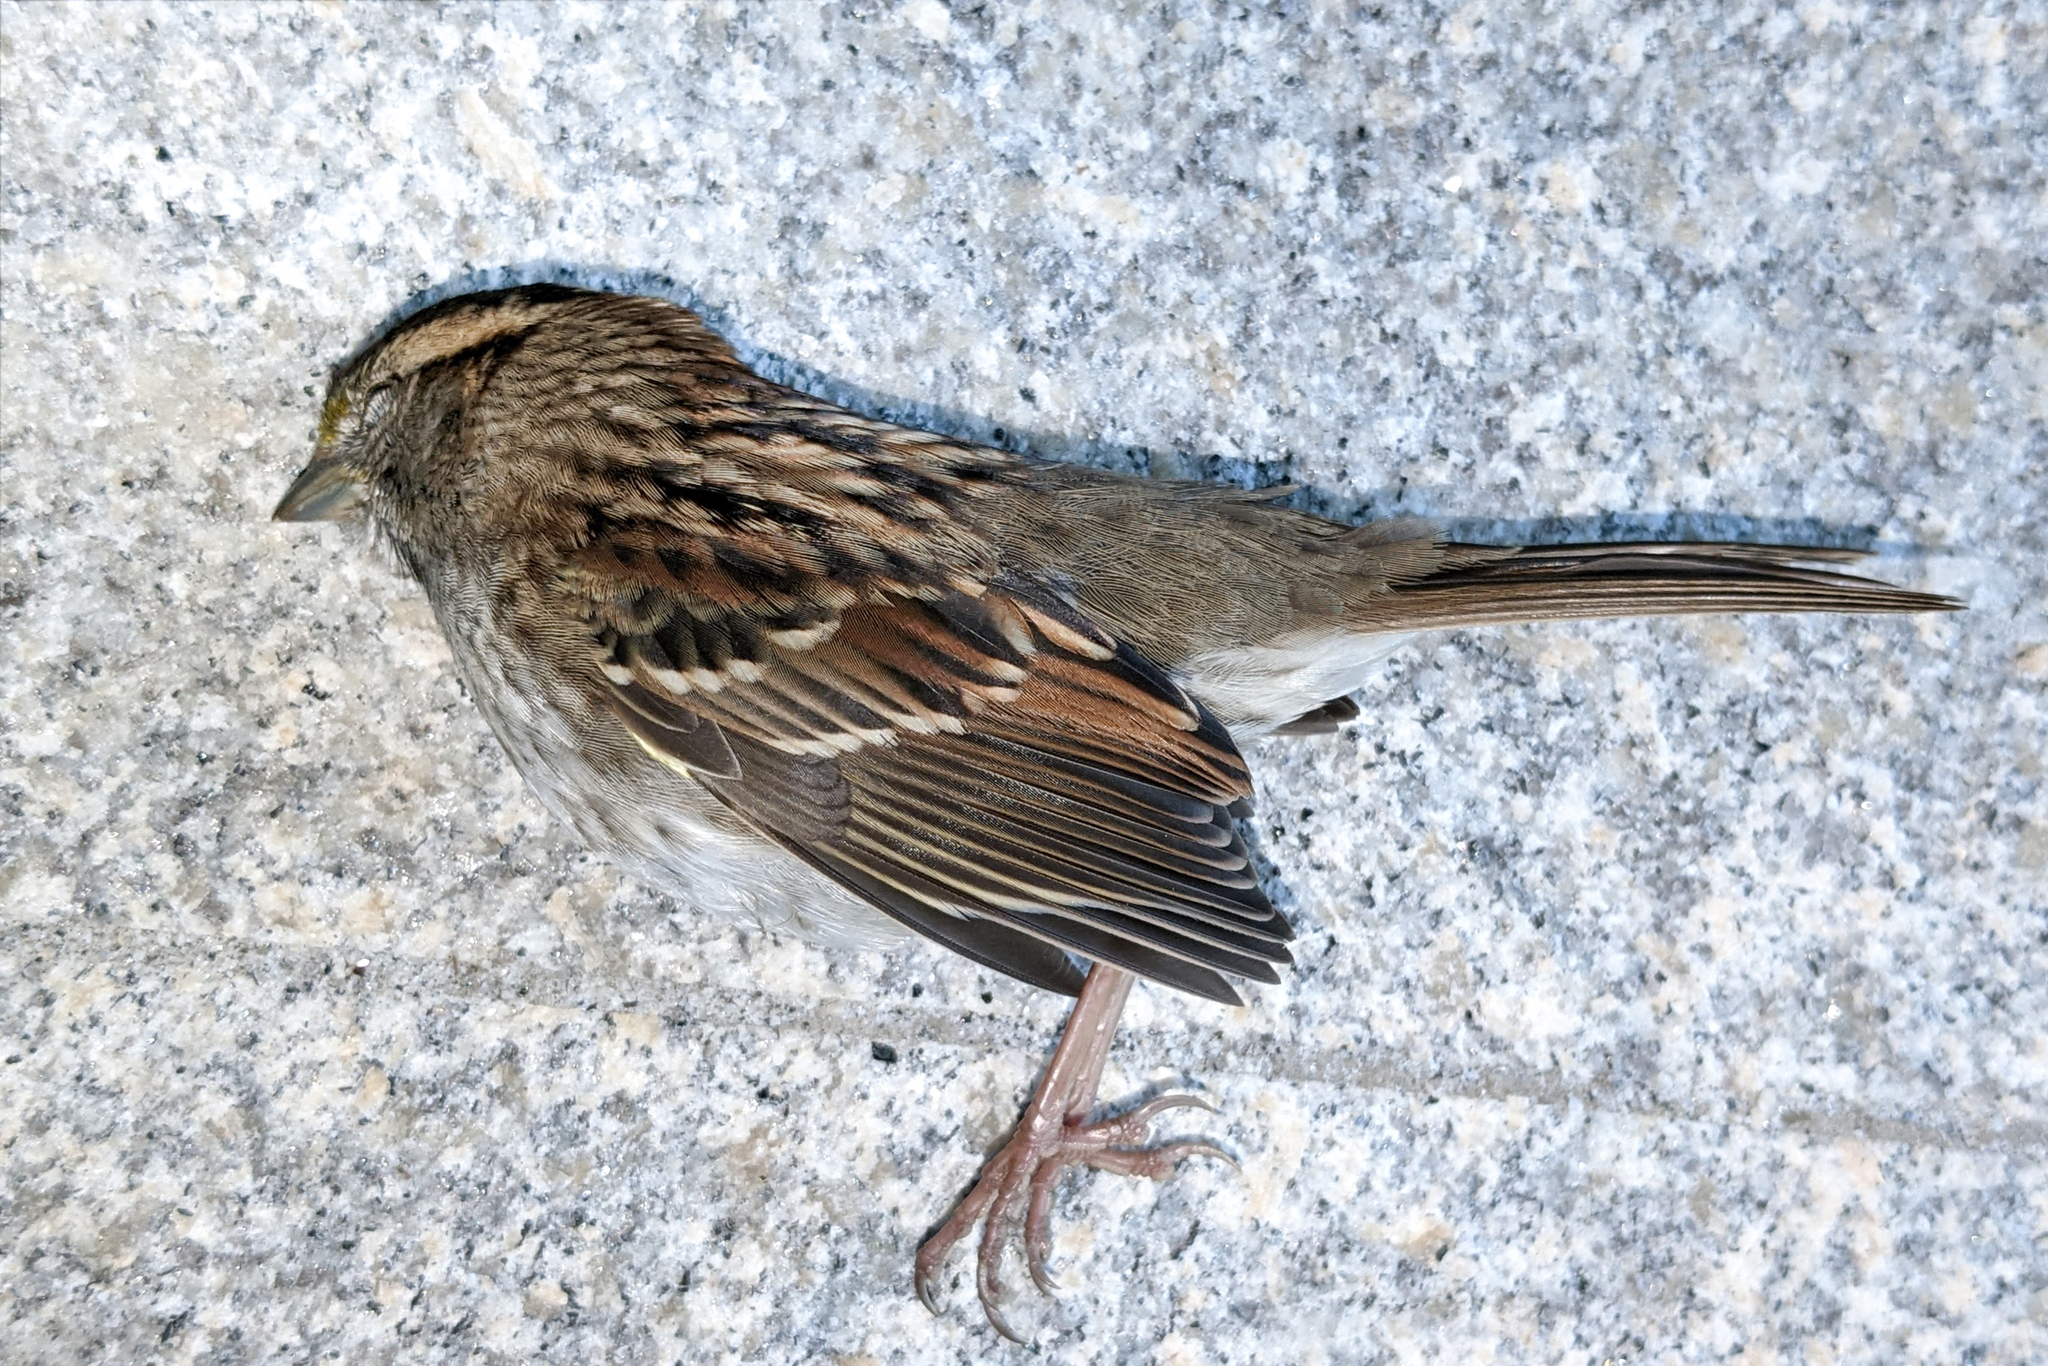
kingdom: Animalia
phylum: Chordata
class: Aves
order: Passeriformes
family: Passerellidae
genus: Zonotrichia
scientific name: Zonotrichia albicollis
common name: White-throated sparrow
